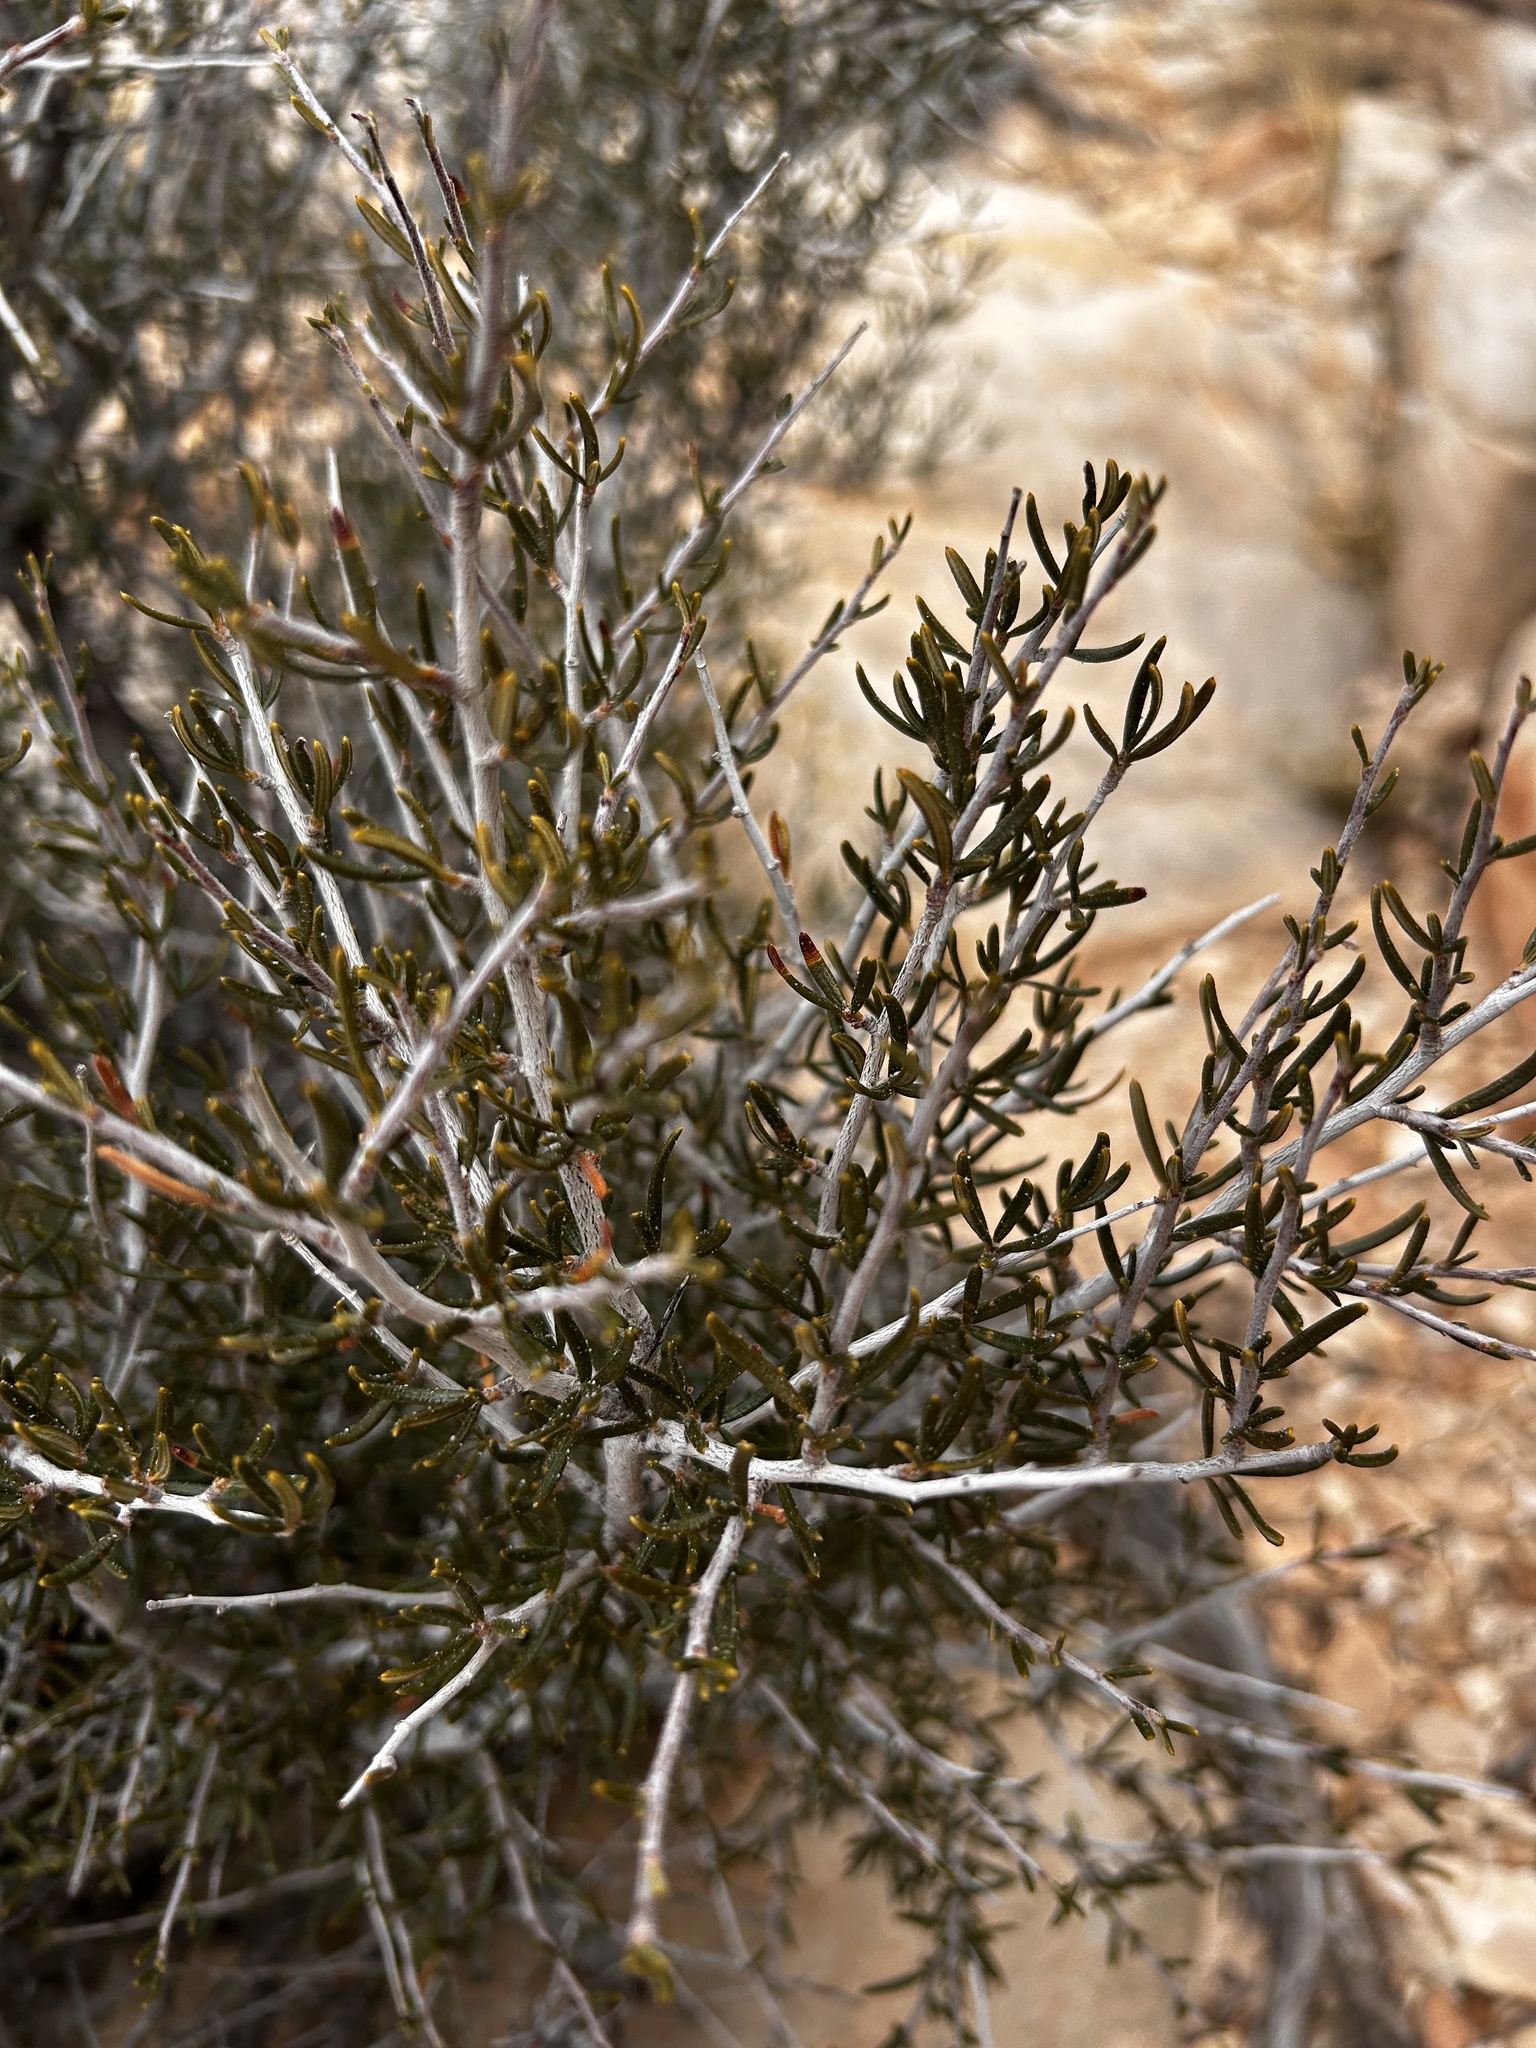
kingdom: Plantae
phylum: Tracheophyta
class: Magnoliopsida
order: Rosales
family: Rosaceae
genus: Cercocarpus
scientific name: Cercocarpus intricatus
